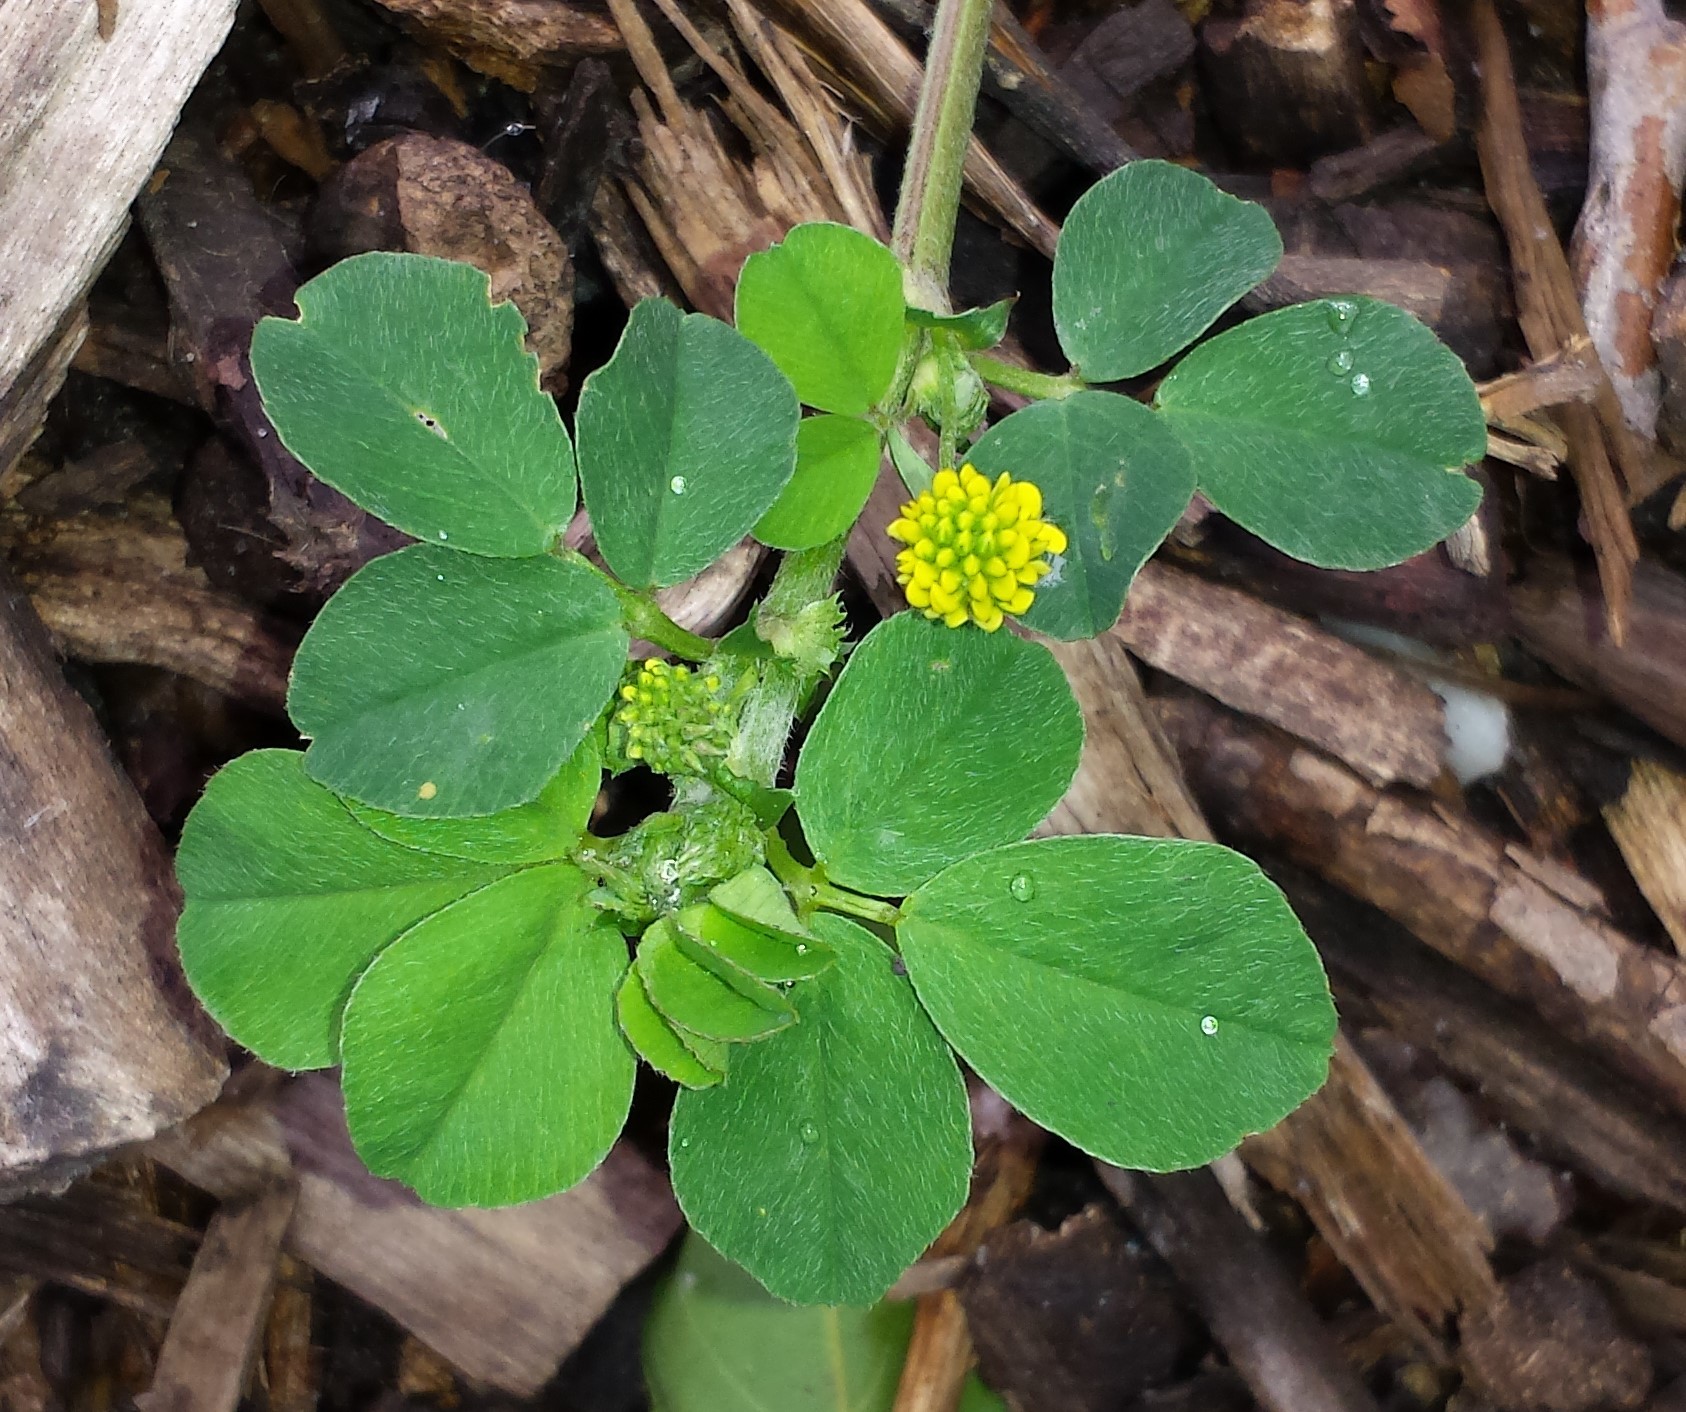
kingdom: Plantae
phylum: Tracheophyta
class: Magnoliopsida
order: Fabales
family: Fabaceae
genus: Medicago
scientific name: Medicago lupulina
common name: Black medick
